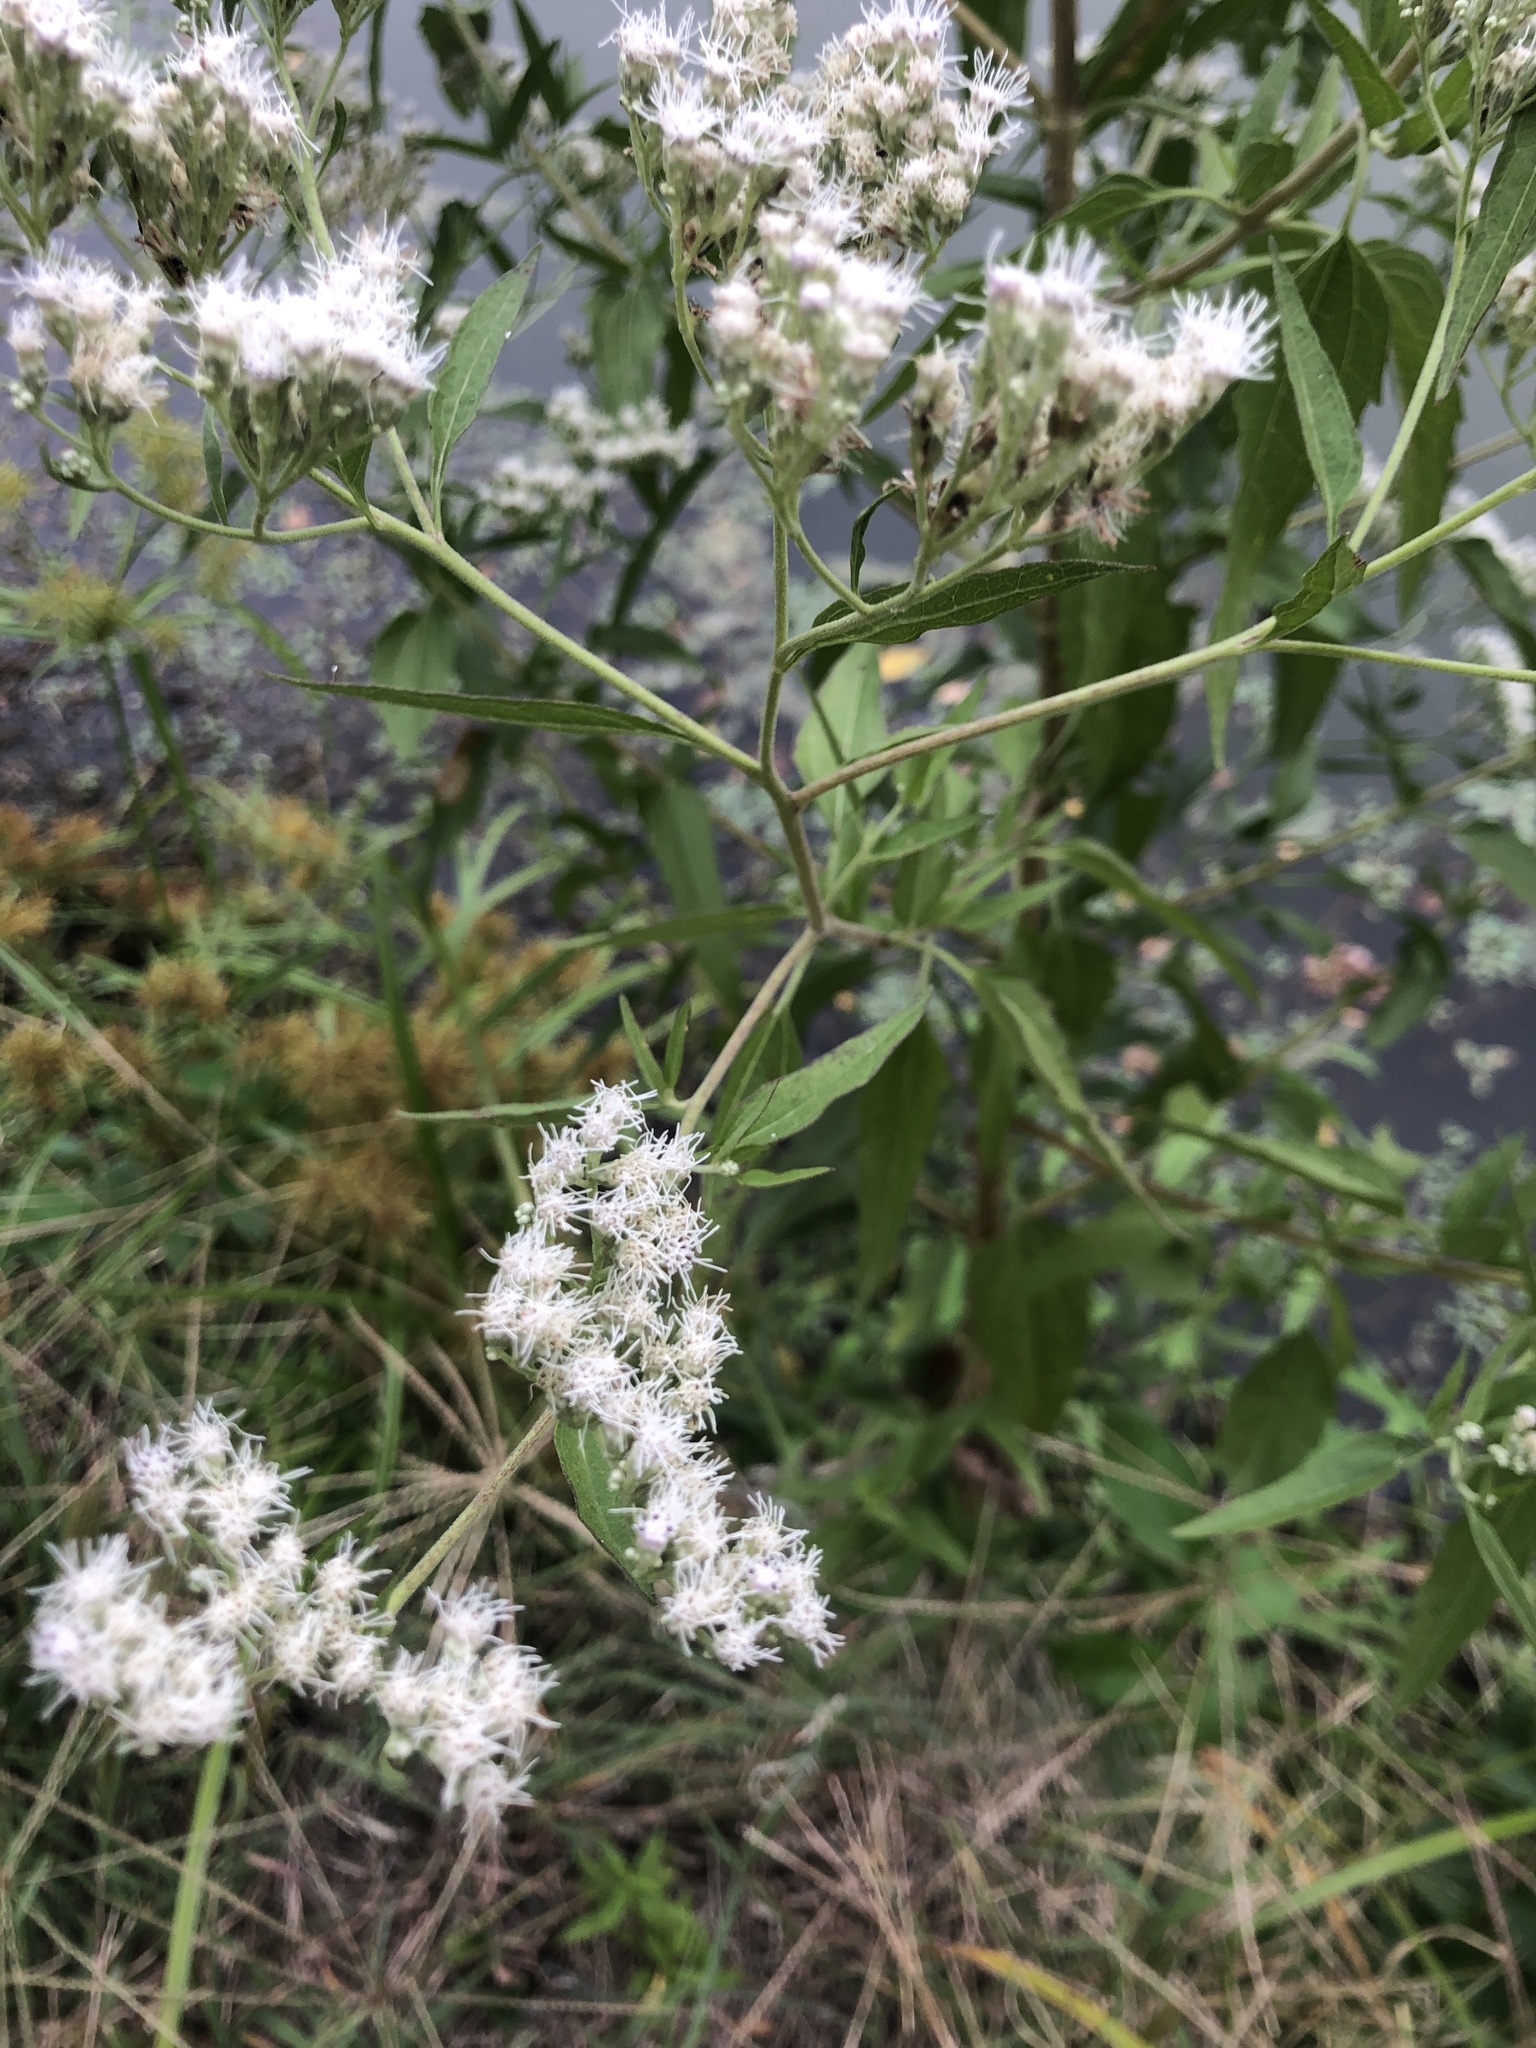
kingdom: Plantae
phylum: Tracheophyta
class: Magnoliopsida
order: Asterales
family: Asteraceae
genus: Eupatorium
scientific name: Eupatorium serotinum
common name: Late boneset
